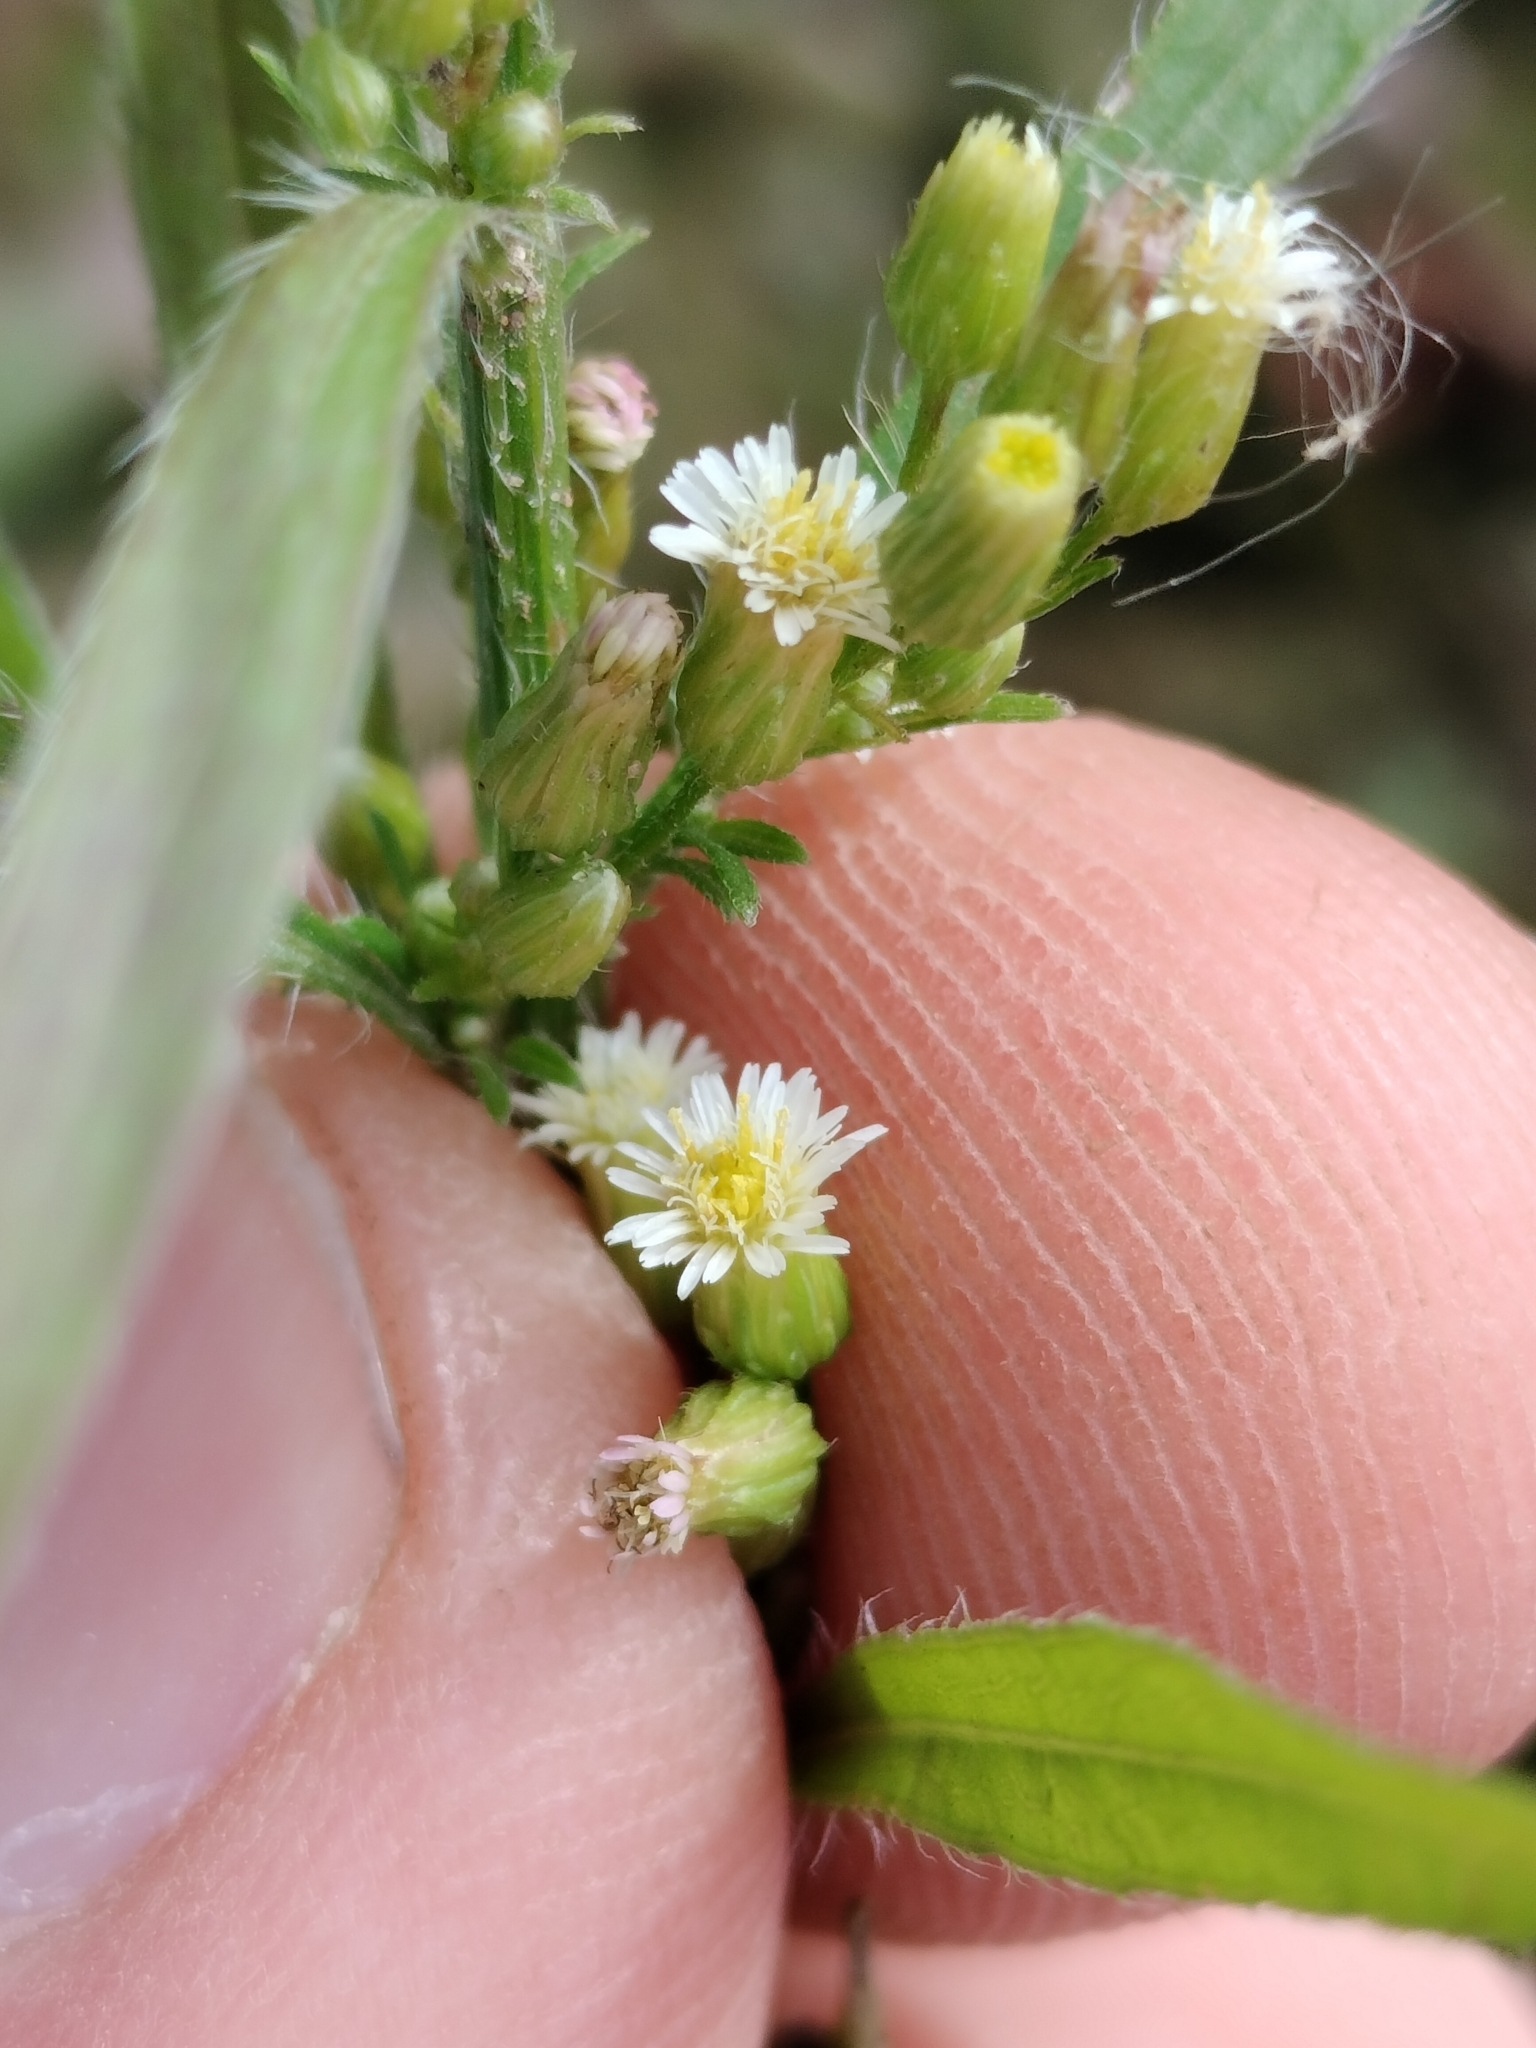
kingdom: Plantae
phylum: Tracheophyta
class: Magnoliopsida
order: Asterales
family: Asteraceae
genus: Erigeron
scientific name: Erigeron canadensis
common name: Canadian fleabane
